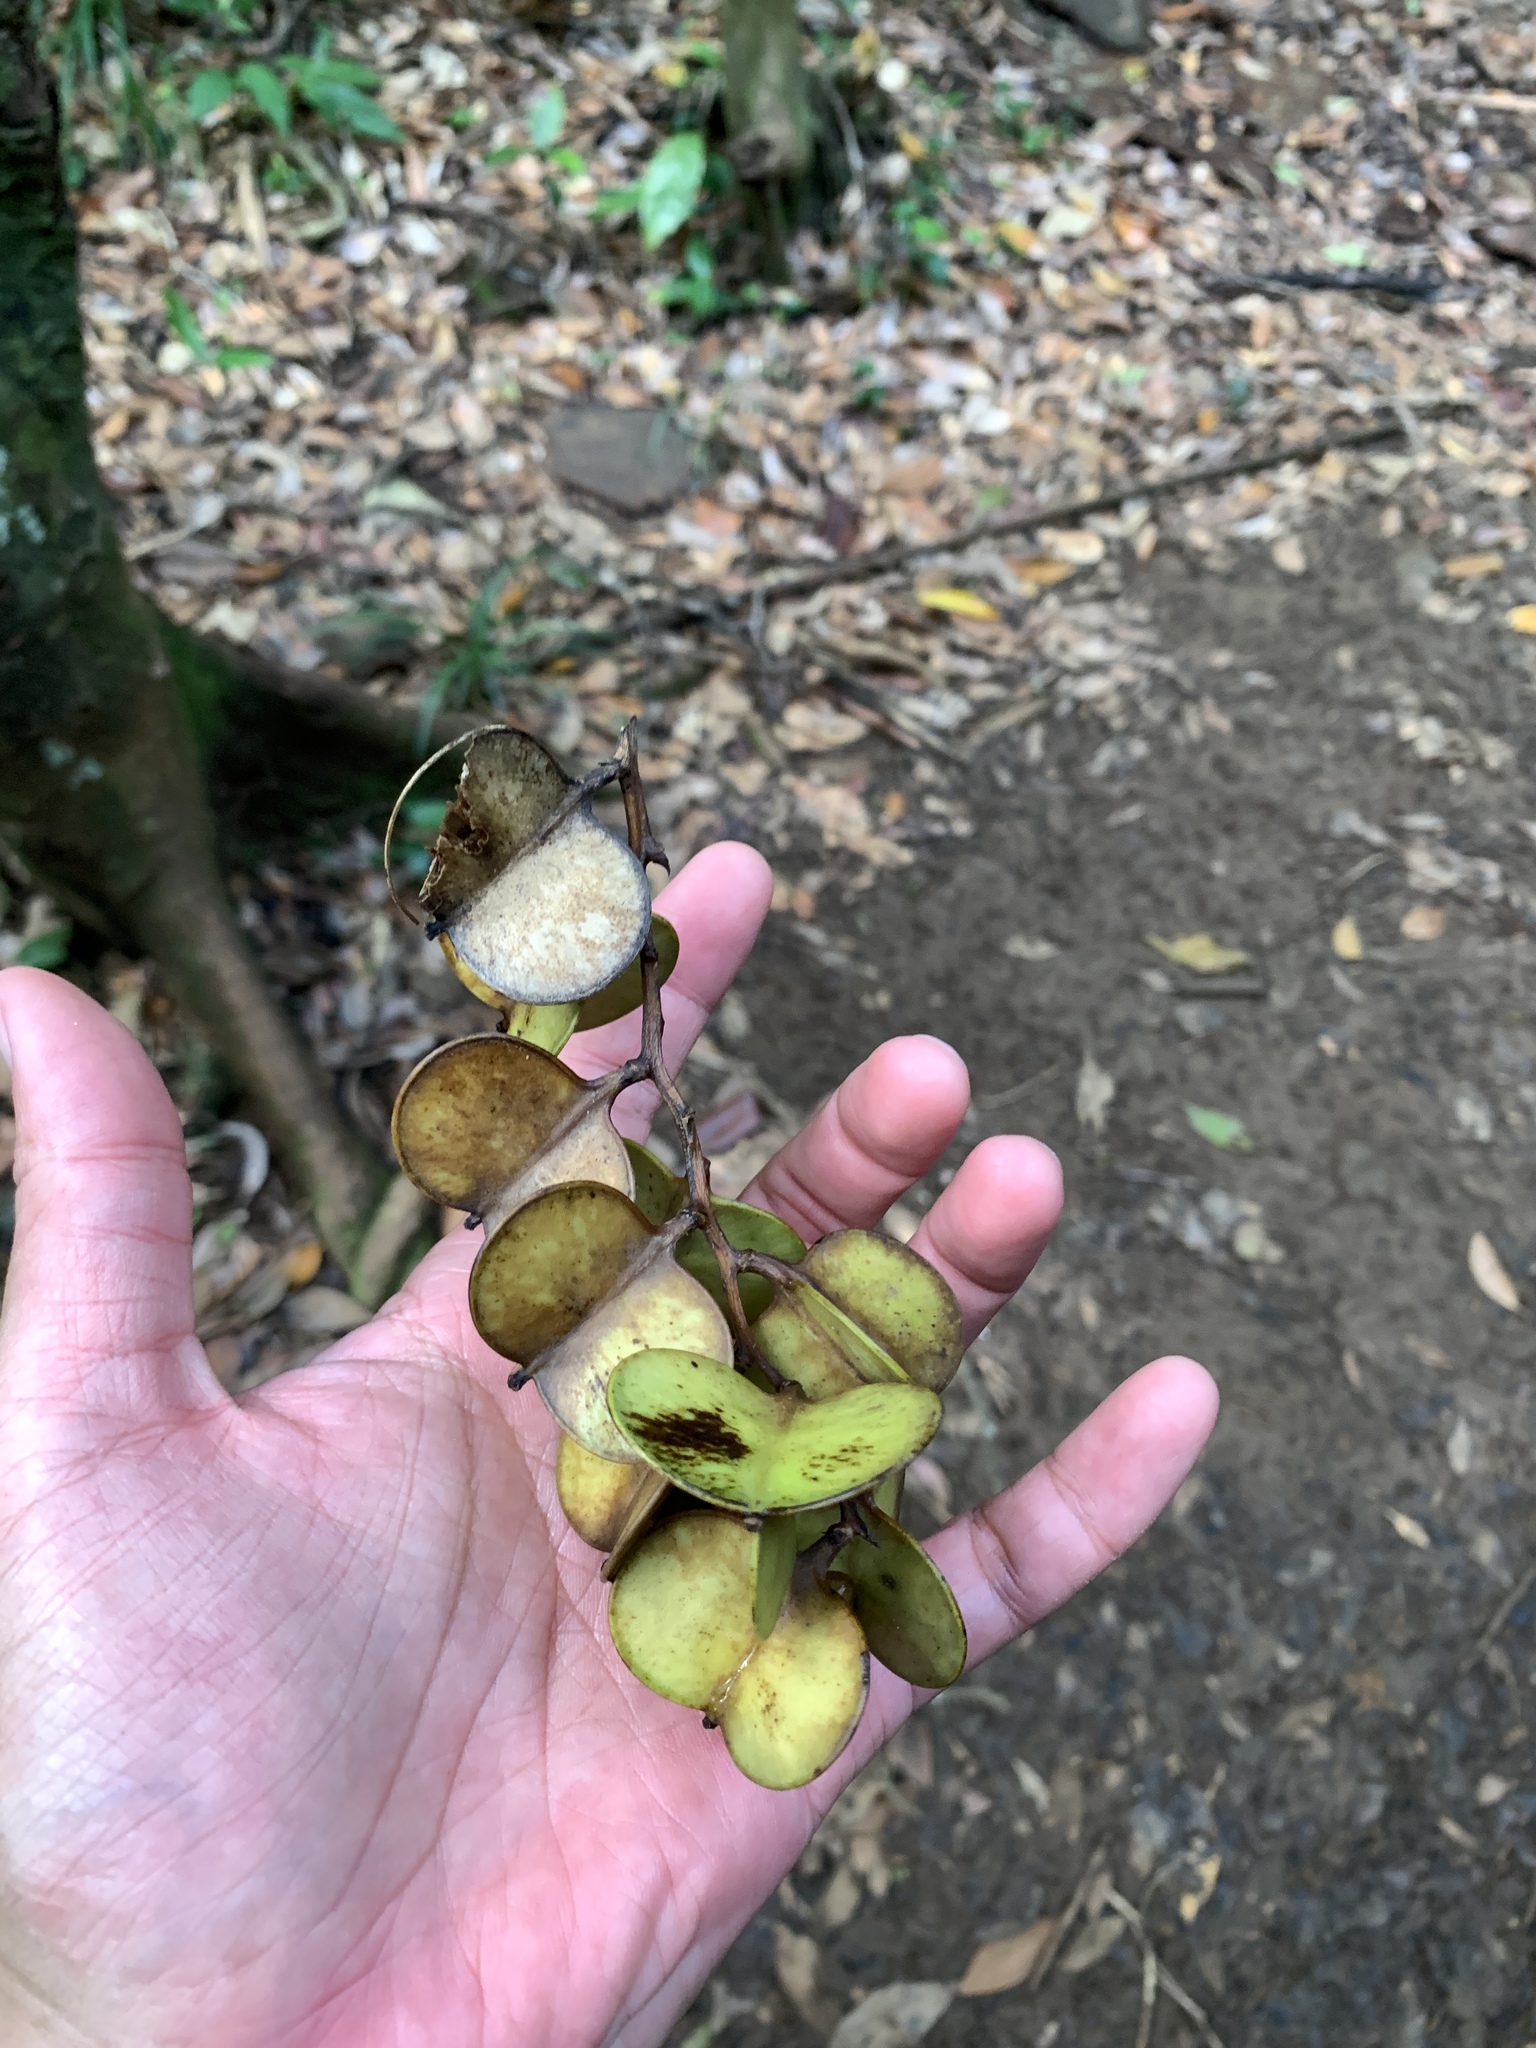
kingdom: Plantae
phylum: Tracheophyta
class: Liliopsida
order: Dioscoreales
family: Dioscoreaceae
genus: Dioscorea
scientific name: Dioscorea cirrhosa
